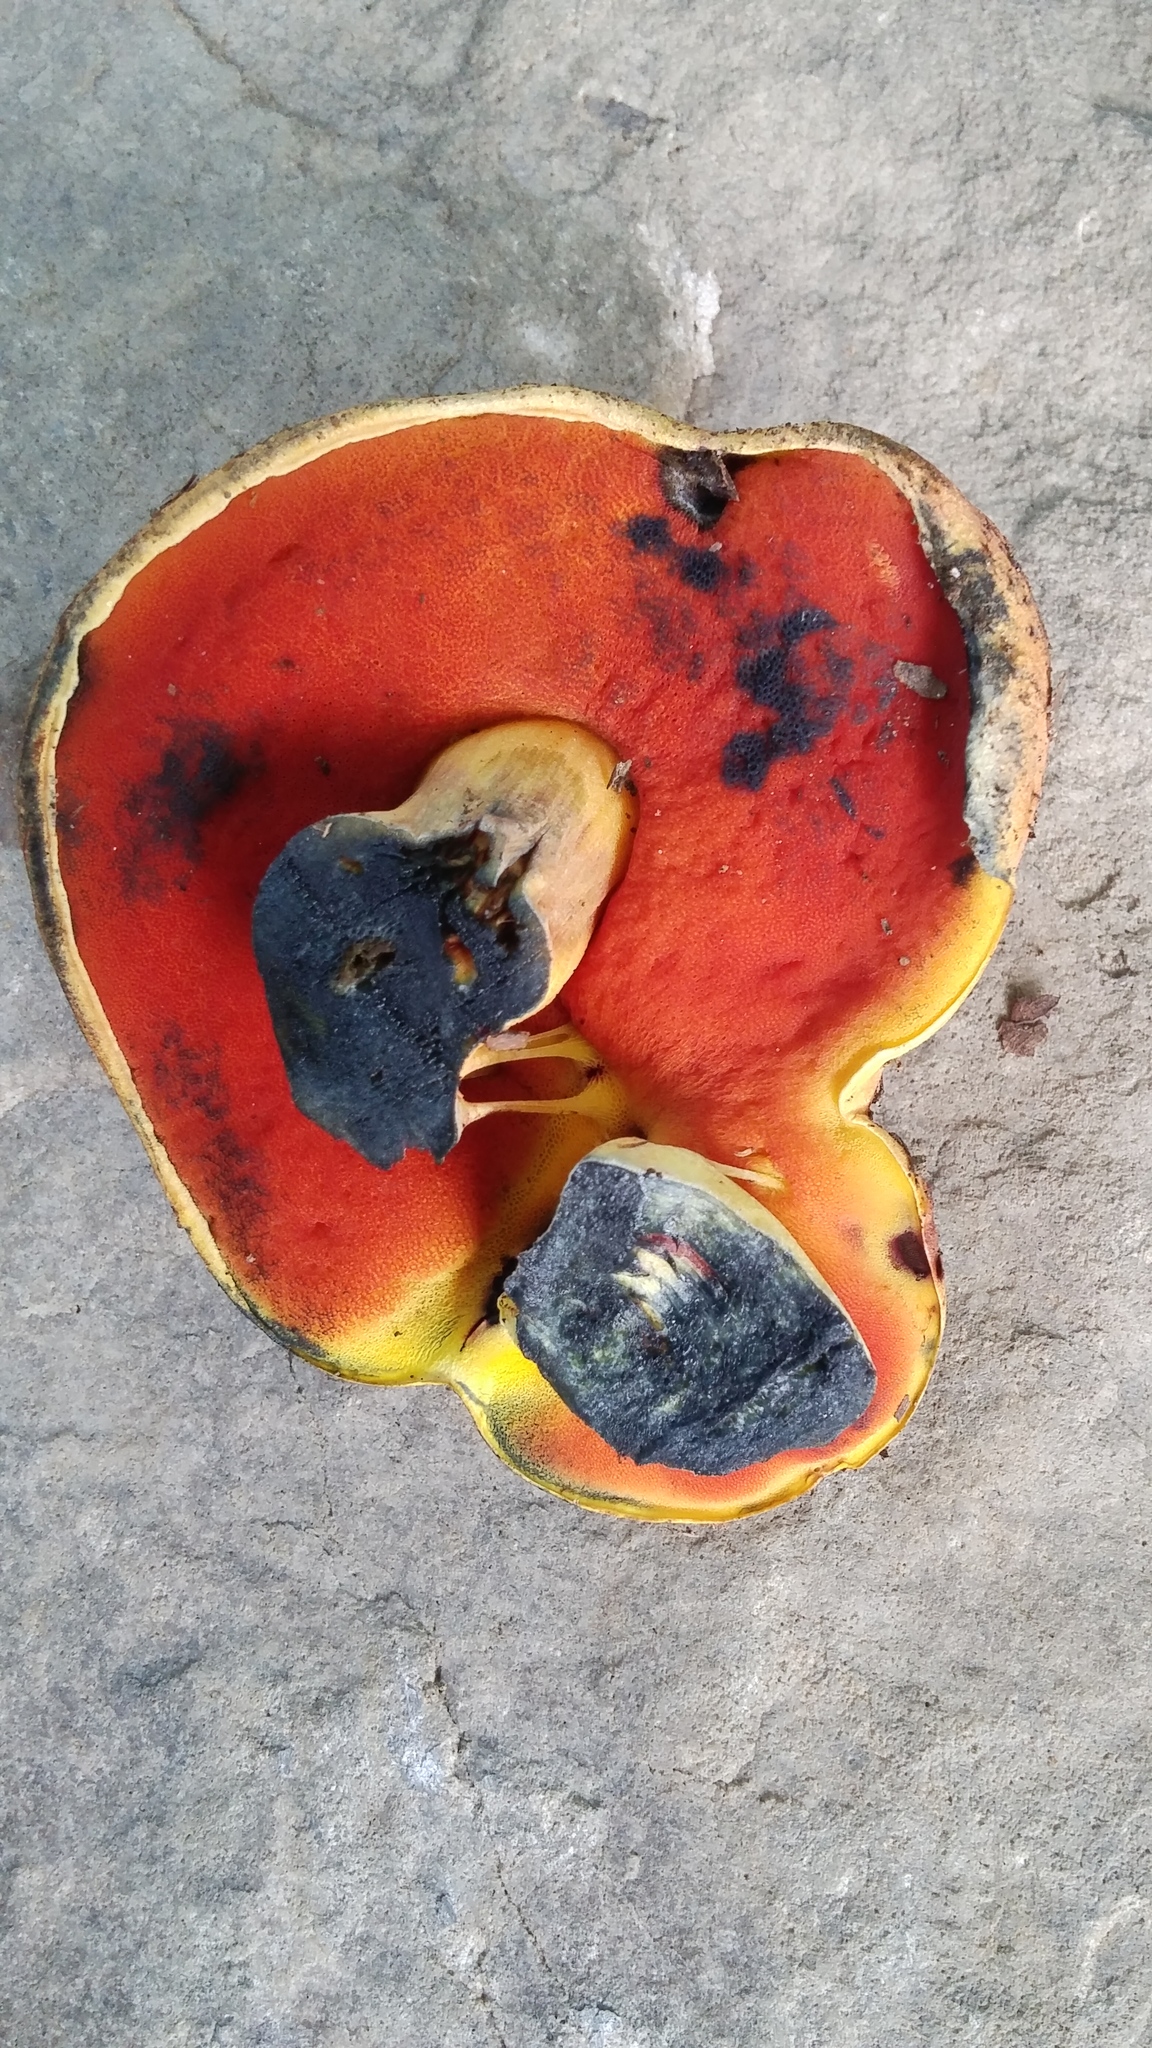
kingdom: Fungi
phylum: Basidiomycota
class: Agaricomycetes
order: Boletales
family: Boletaceae
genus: Boletus
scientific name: Boletus subvelutipes
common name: Red-mouth bolete
